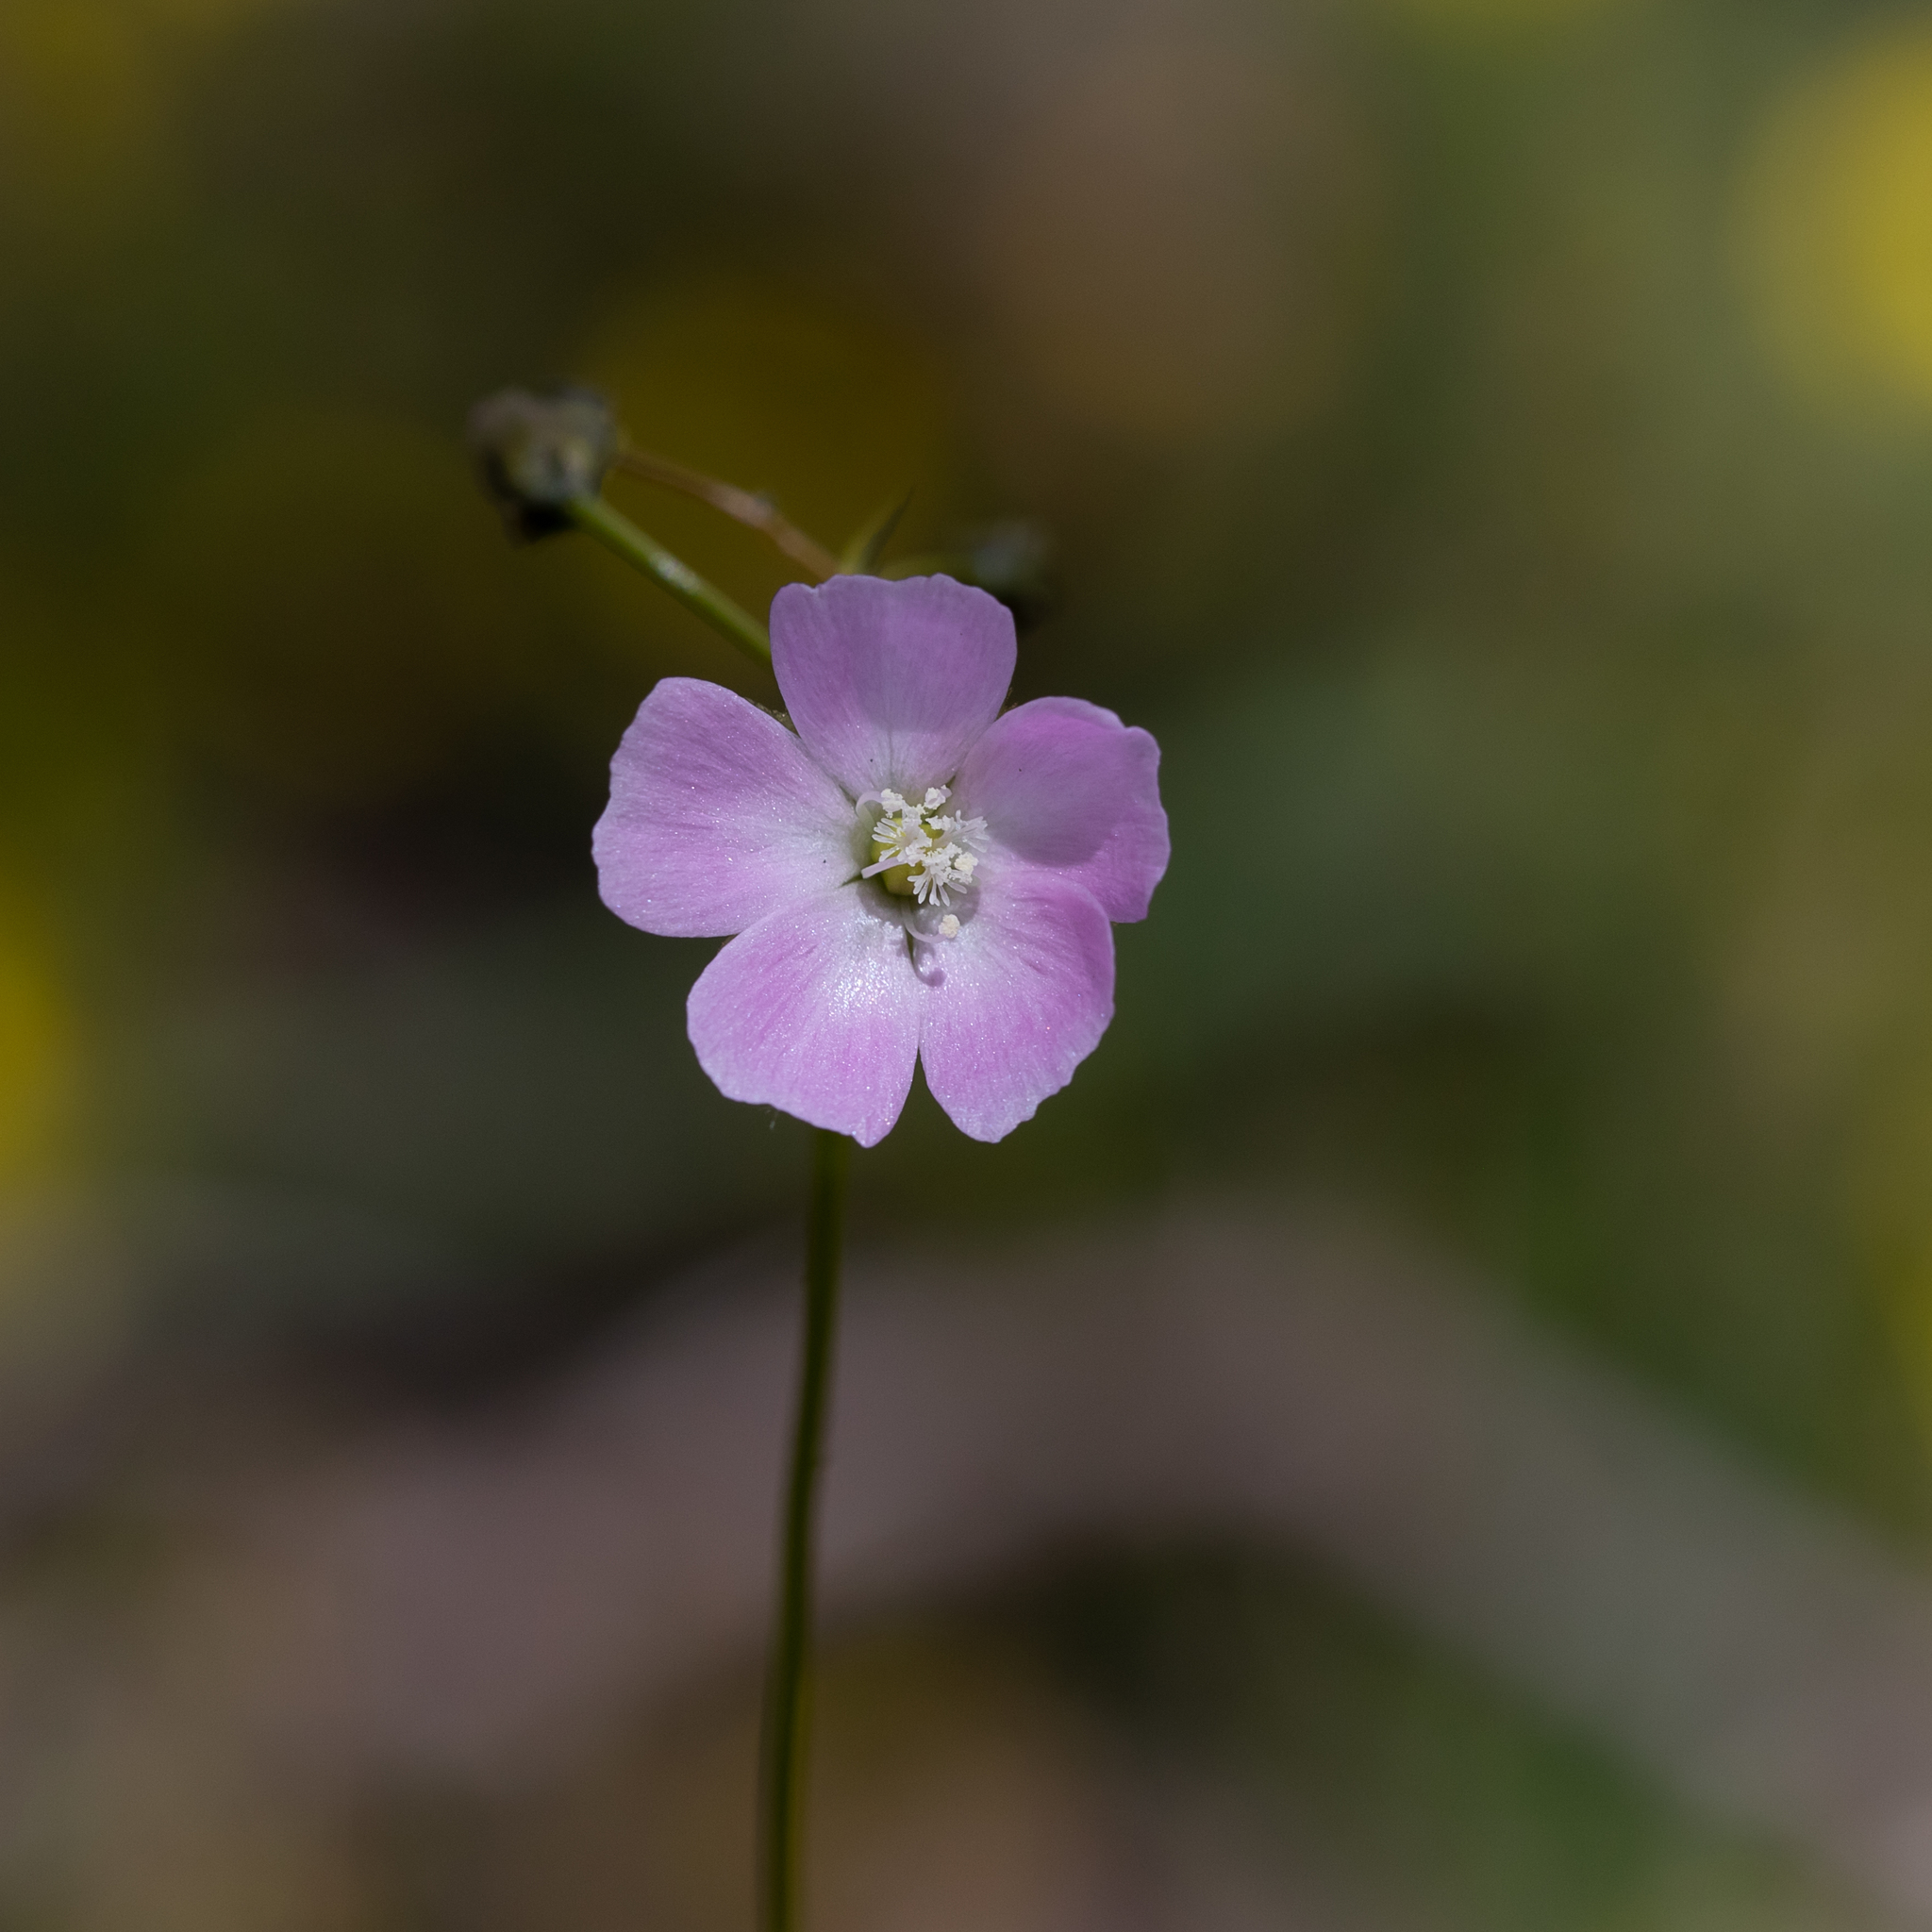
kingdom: Plantae
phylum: Tracheophyta
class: Magnoliopsida
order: Caryophyllales
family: Droseraceae
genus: Drosera
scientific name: Drosera peltata
